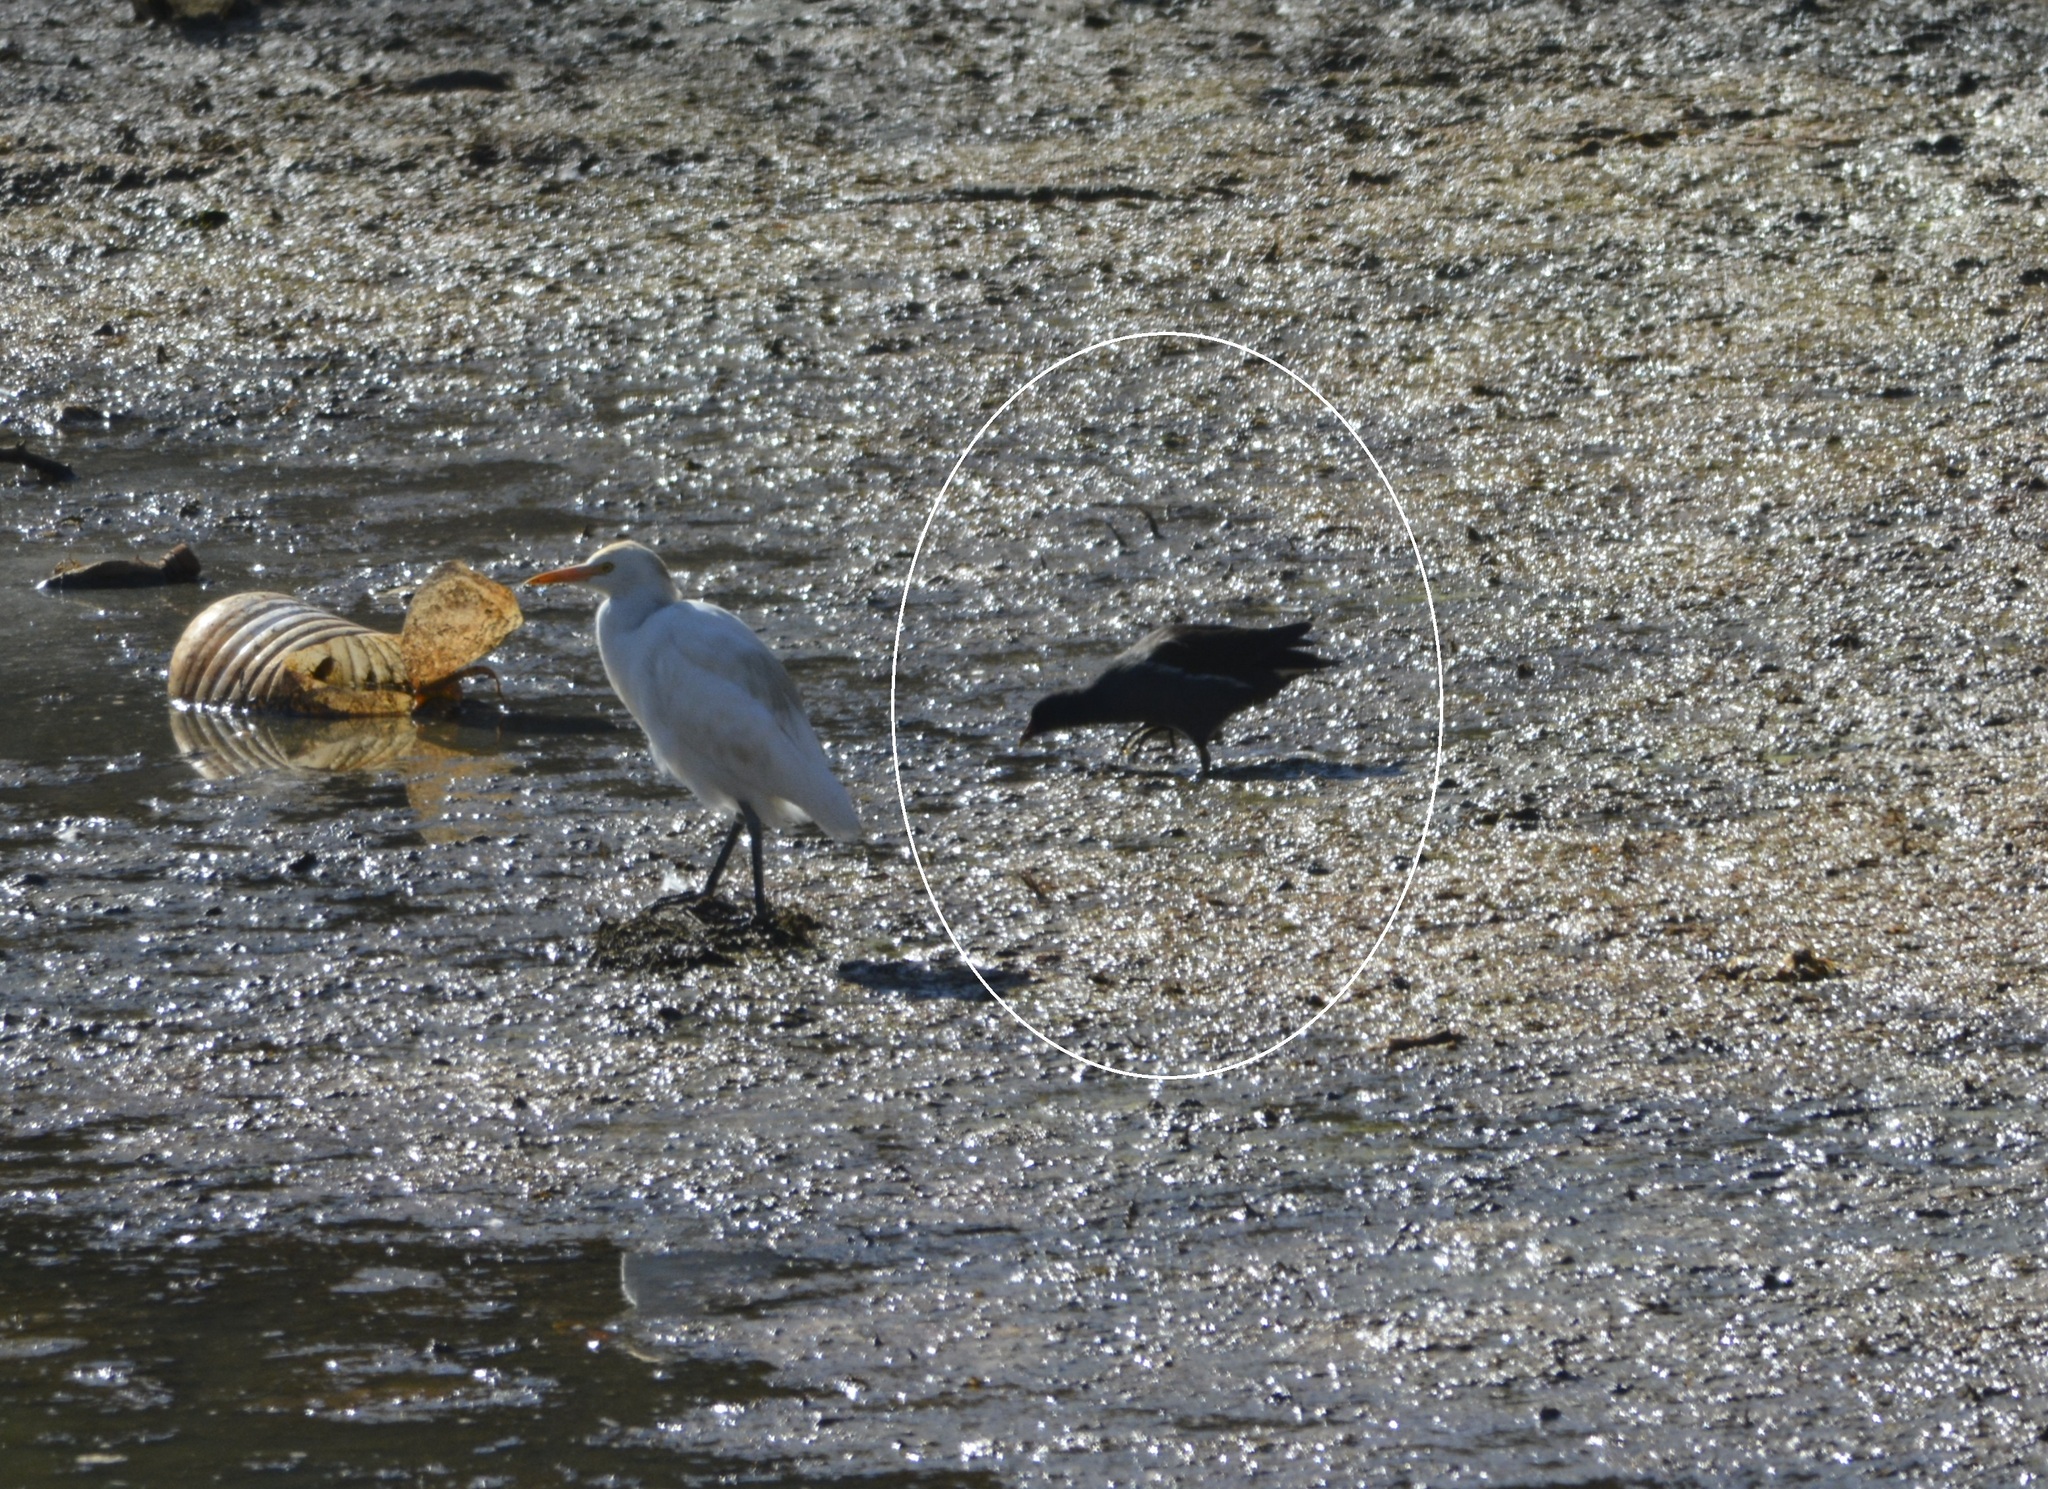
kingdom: Animalia
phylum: Chordata
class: Aves
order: Gruiformes
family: Rallidae
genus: Gallinula
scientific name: Gallinula chloropus
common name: Common moorhen
